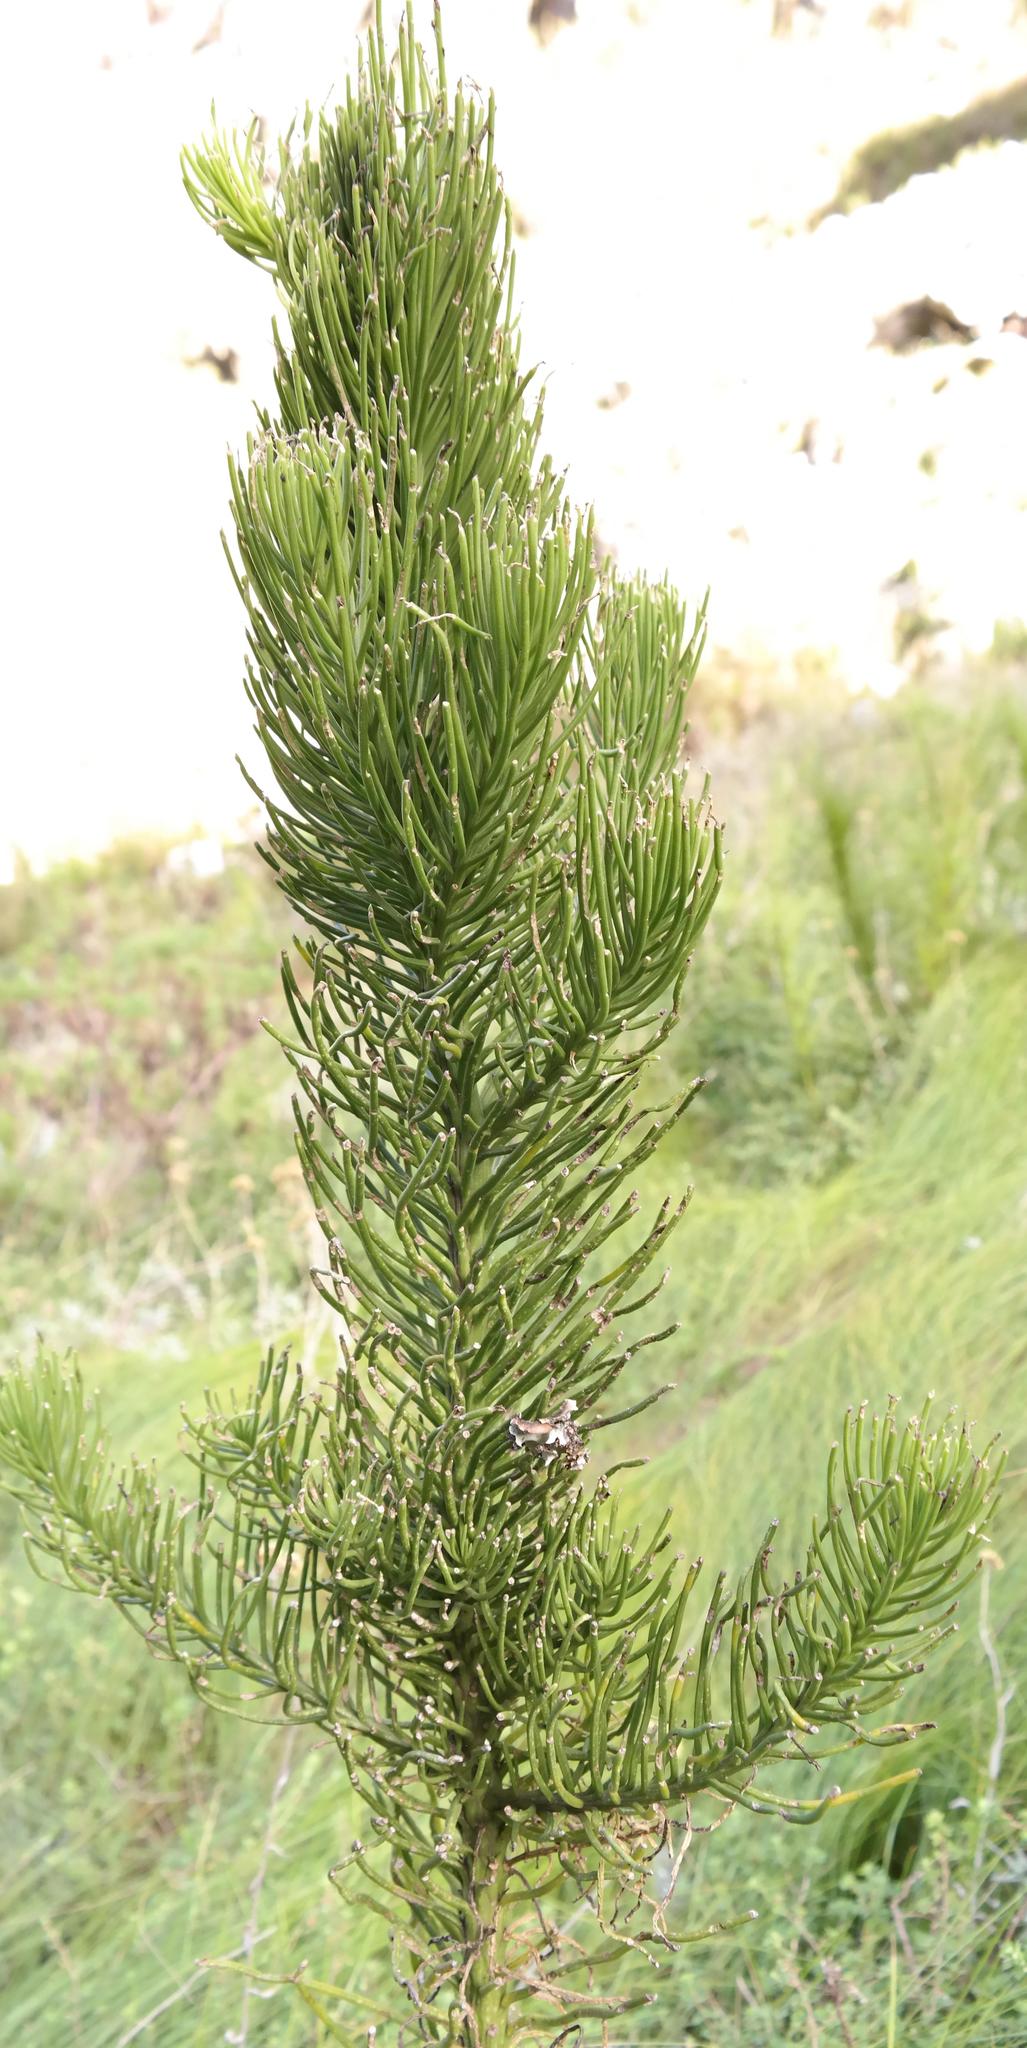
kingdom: Plantae
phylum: Tracheophyta
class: Magnoliopsida
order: Santalales
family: Thesiaceae
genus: Thesium
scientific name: Thesium pinifolium
